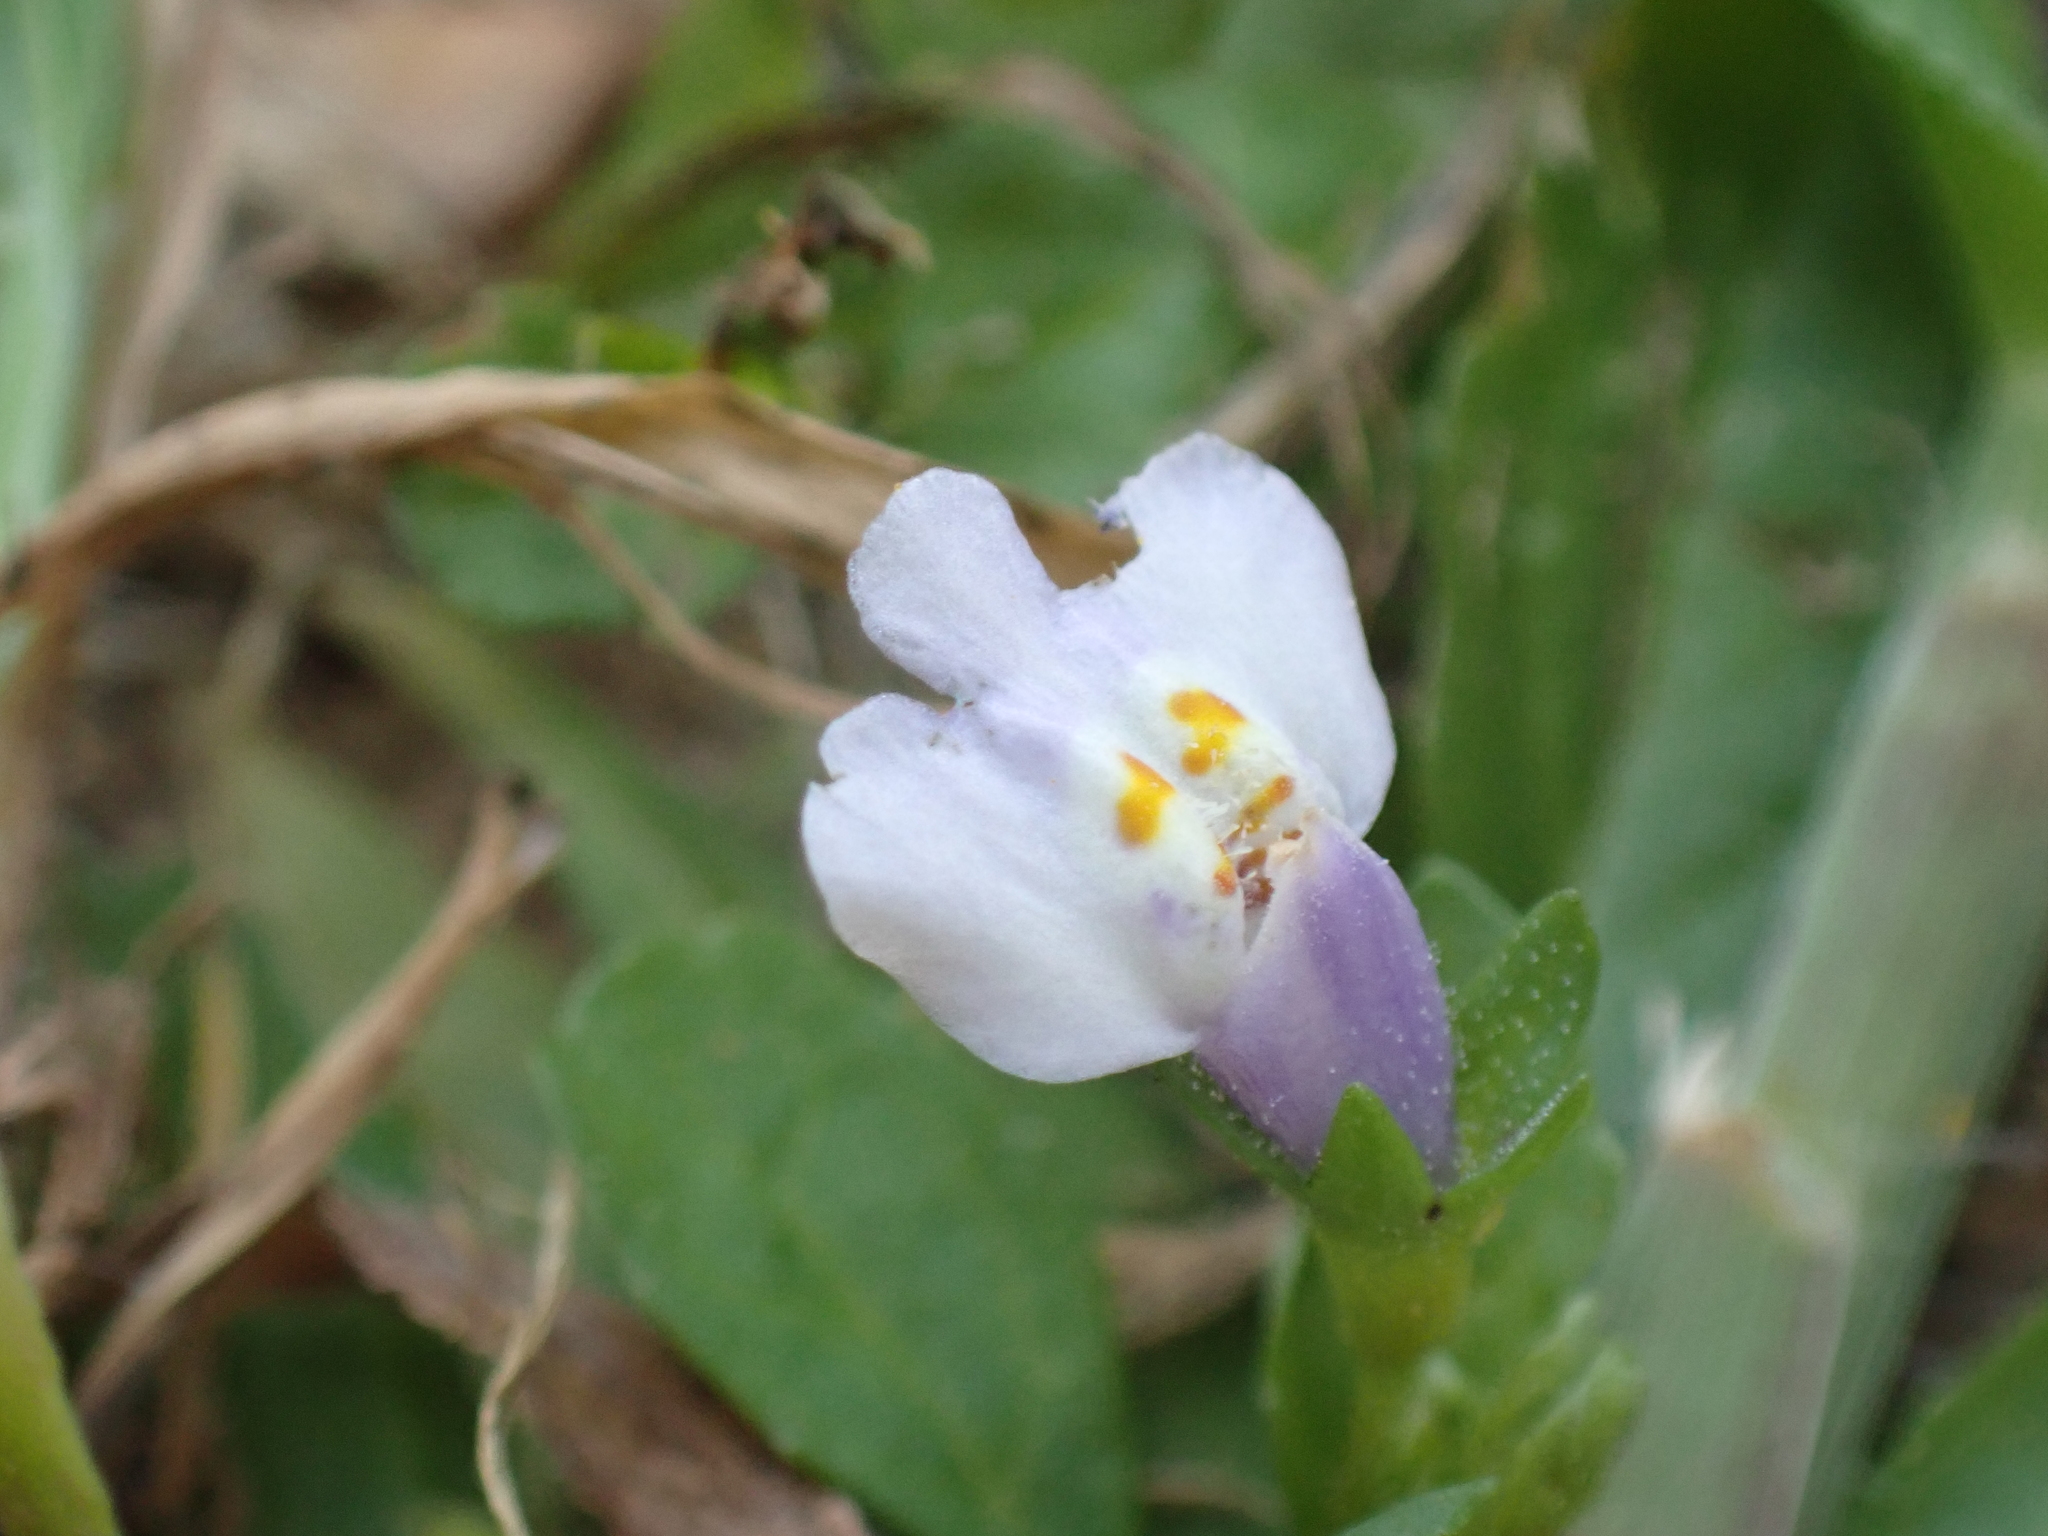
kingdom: Plantae
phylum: Tracheophyta
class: Magnoliopsida
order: Lamiales
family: Mazaceae
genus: Mazus
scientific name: Mazus pumilus
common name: Japanese mazus
